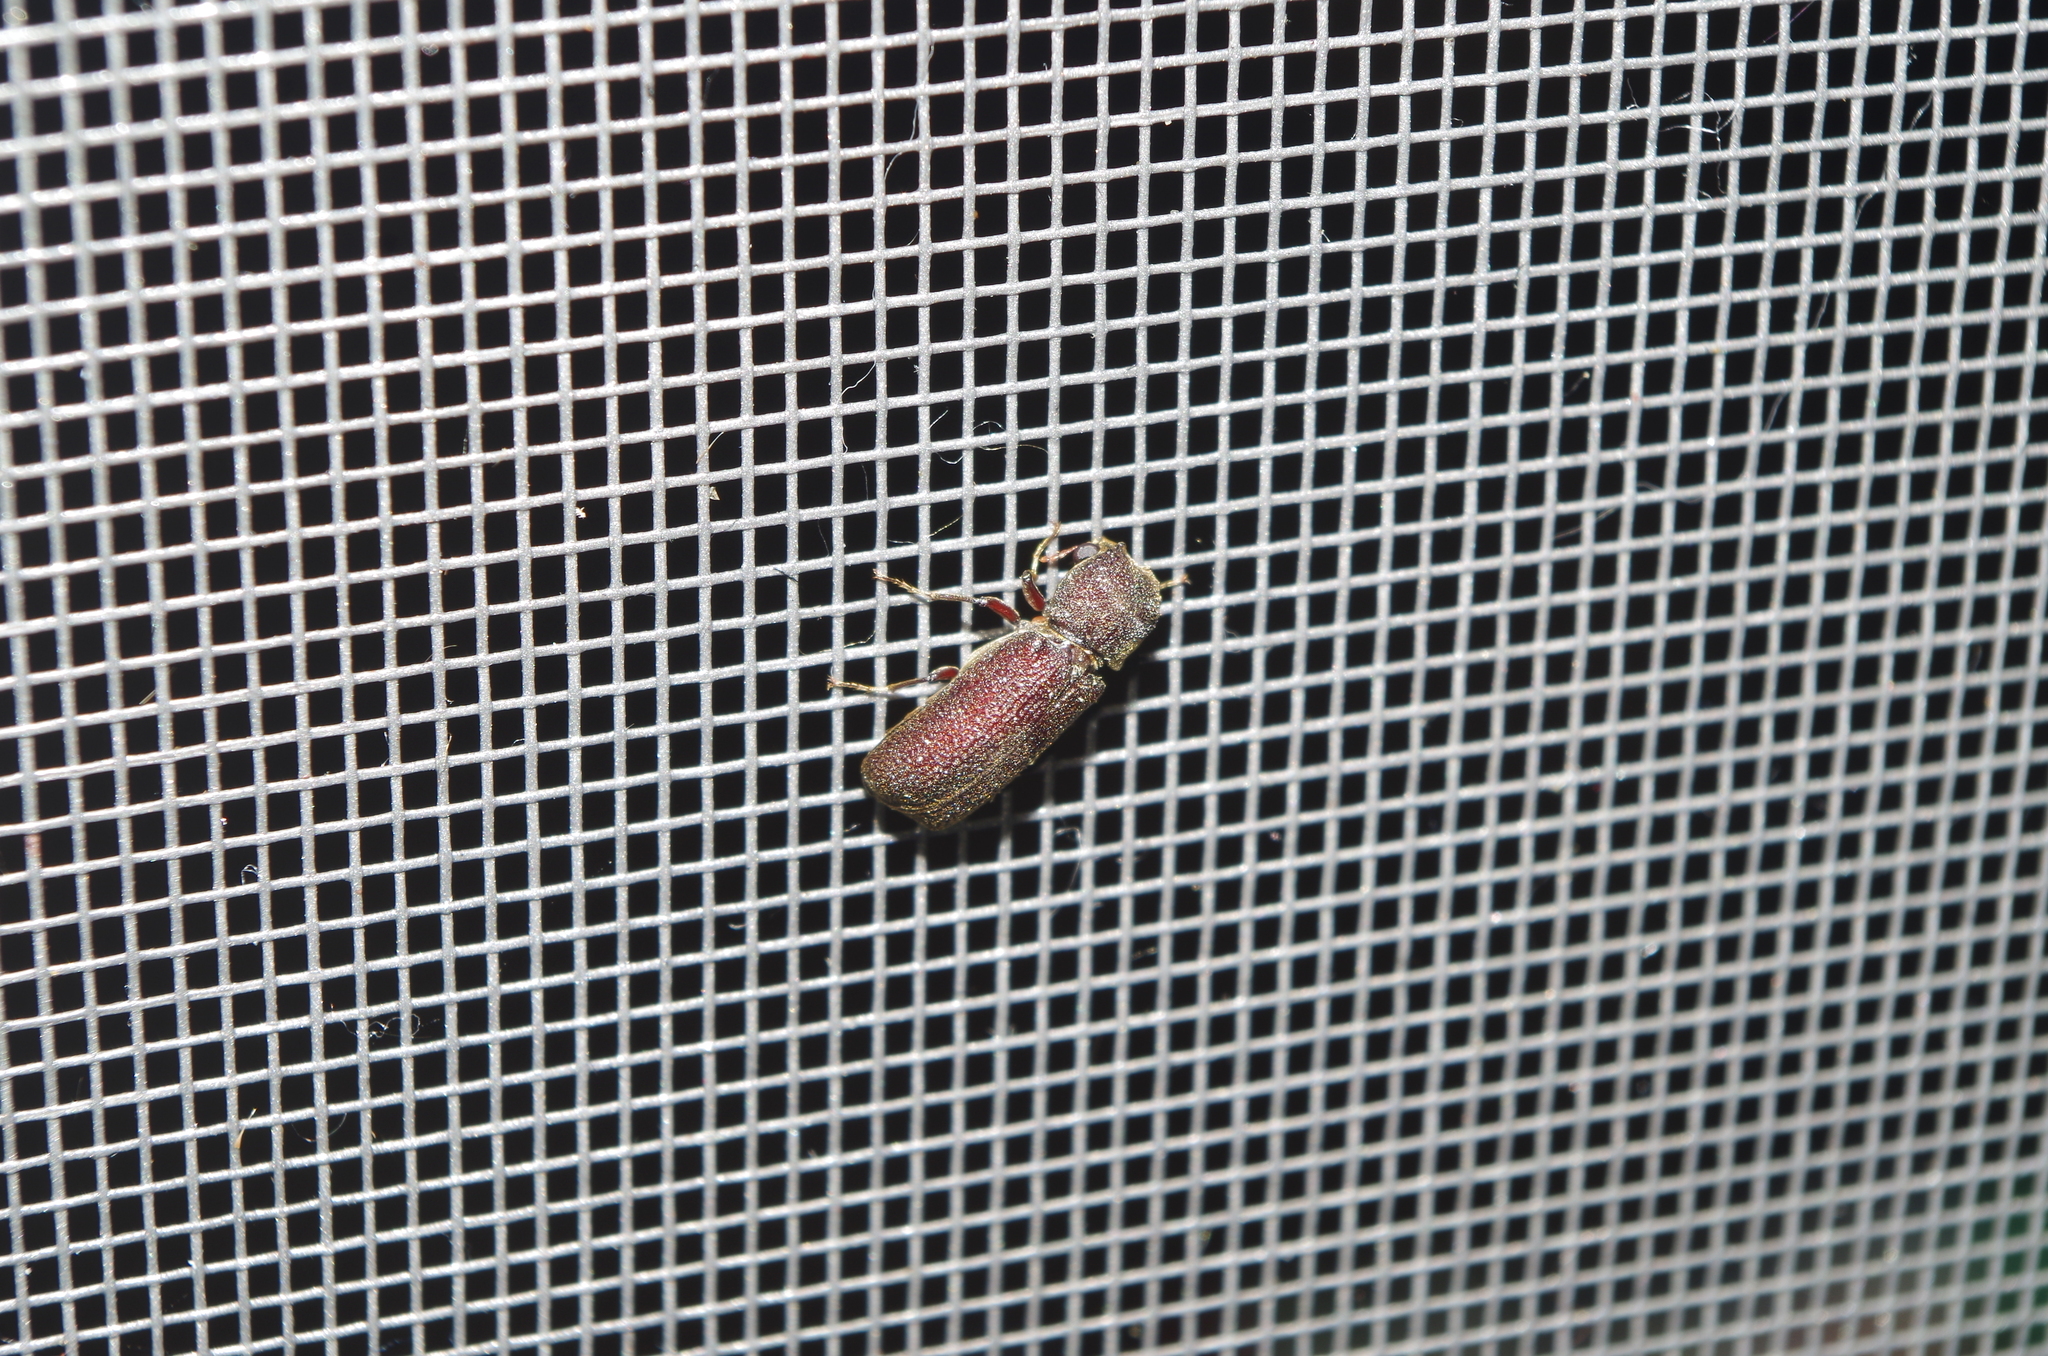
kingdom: Animalia
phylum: Arthropoda
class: Insecta
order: Coleoptera
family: Bostrichidae
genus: Heterobostrychus
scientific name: Heterobostrychus hamatipennis
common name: Bostrichid beetle
